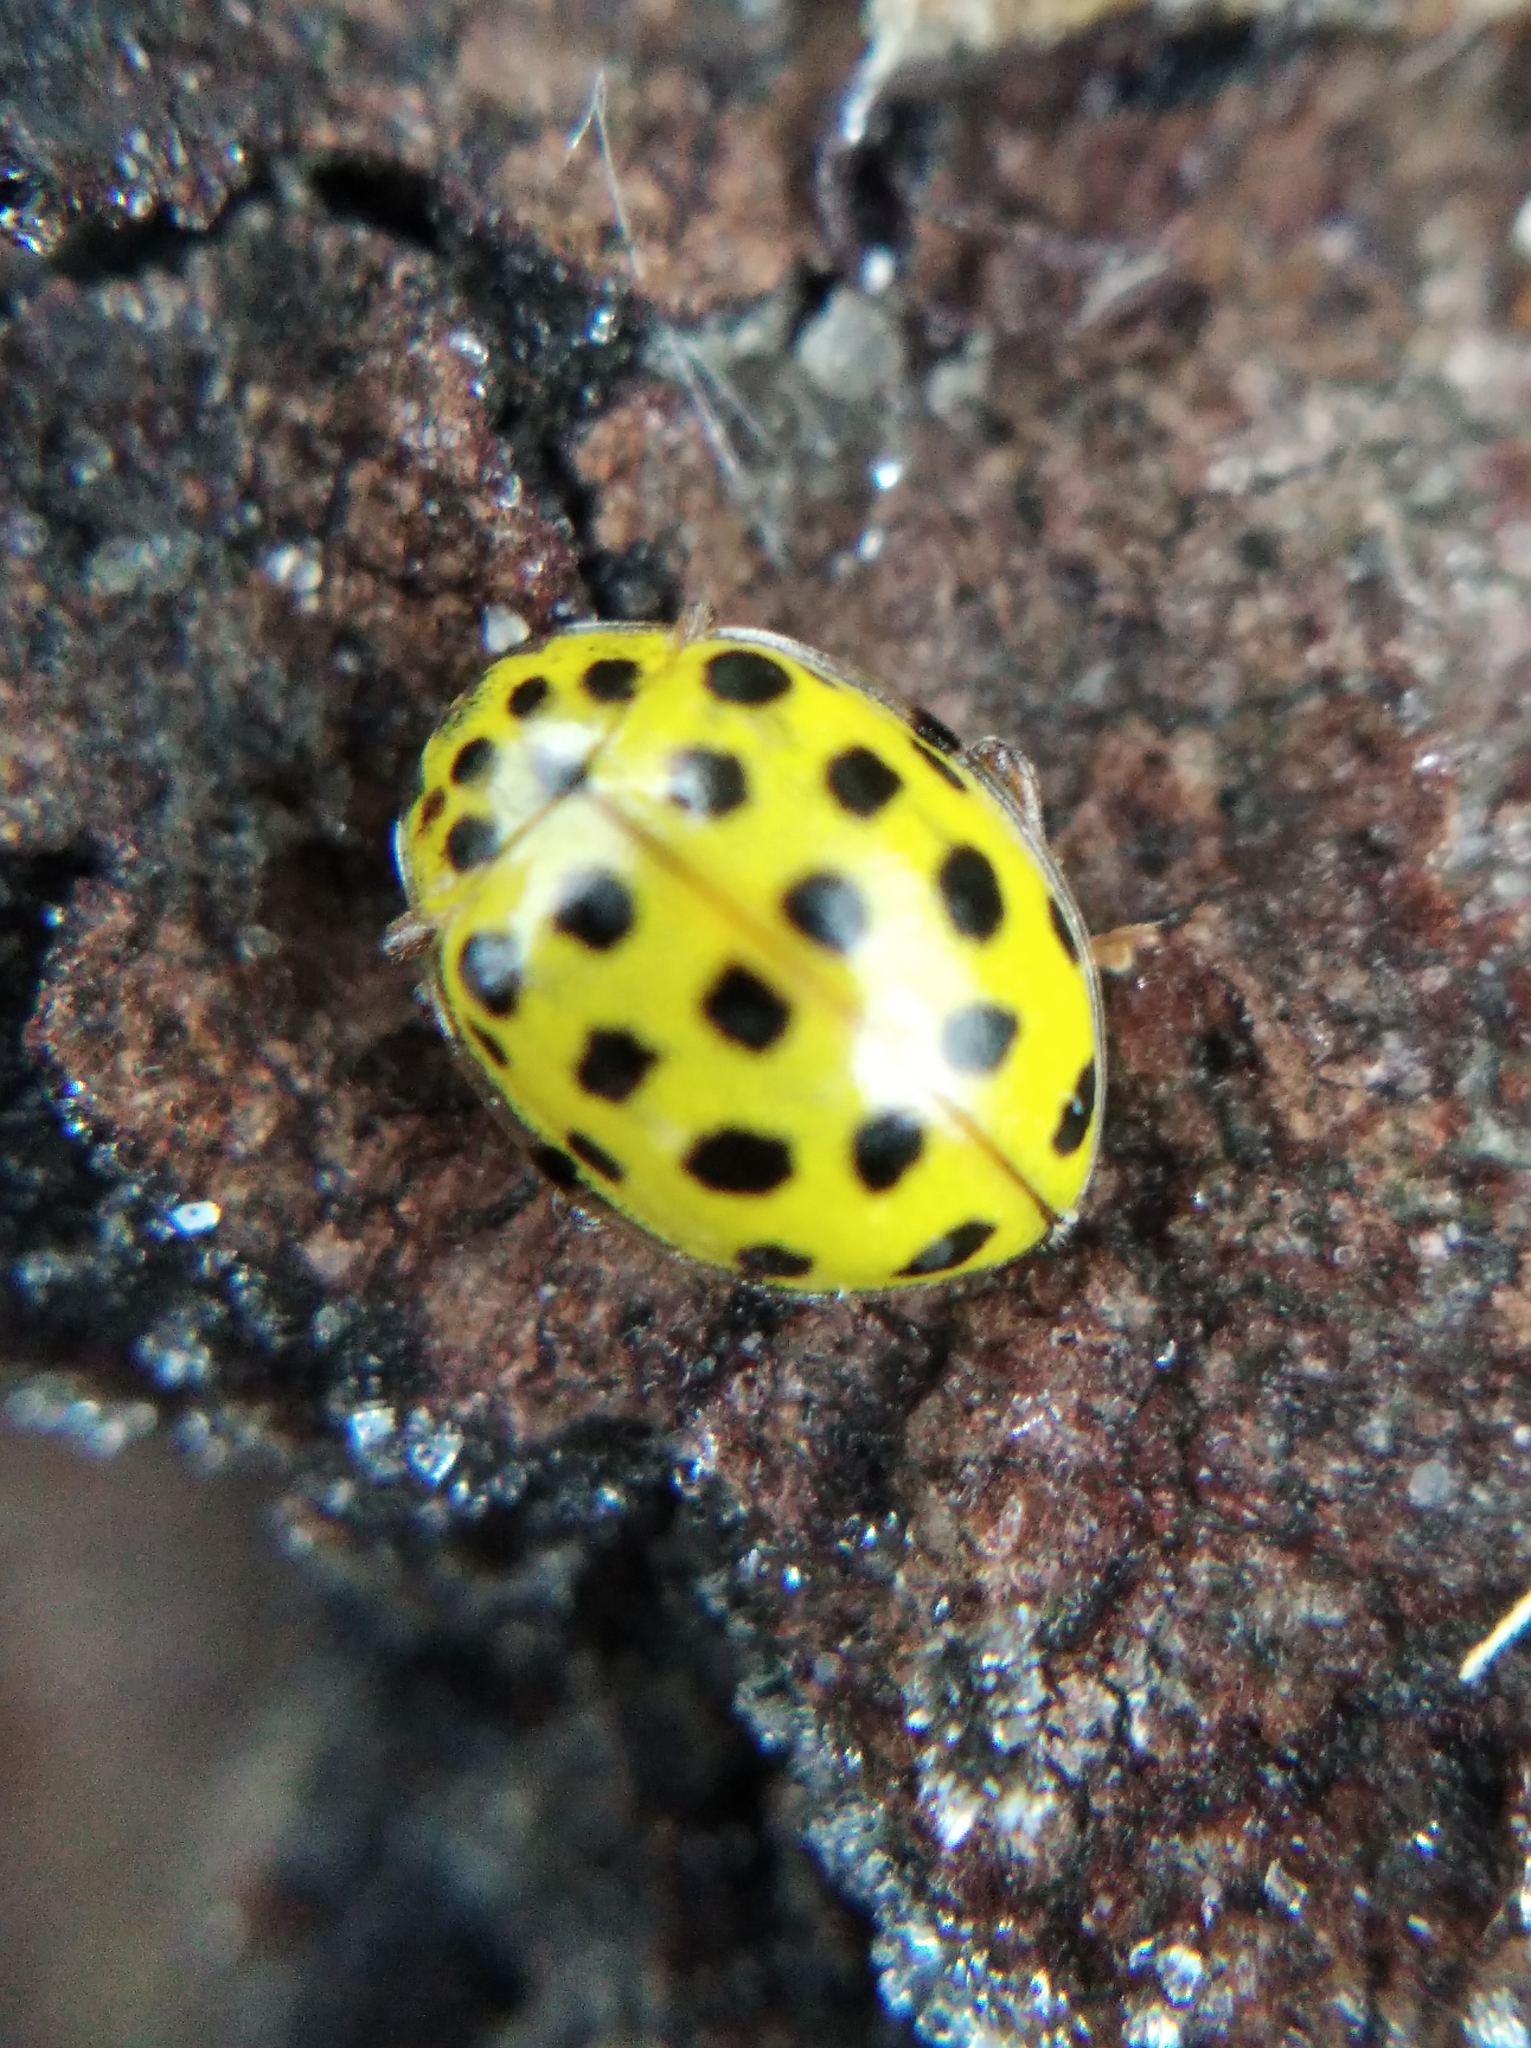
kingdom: Animalia
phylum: Arthropoda
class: Insecta
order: Coleoptera
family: Coccinellidae
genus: Psyllobora
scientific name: Psyllobora vigintiduopunctata
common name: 22-spot ladybird
